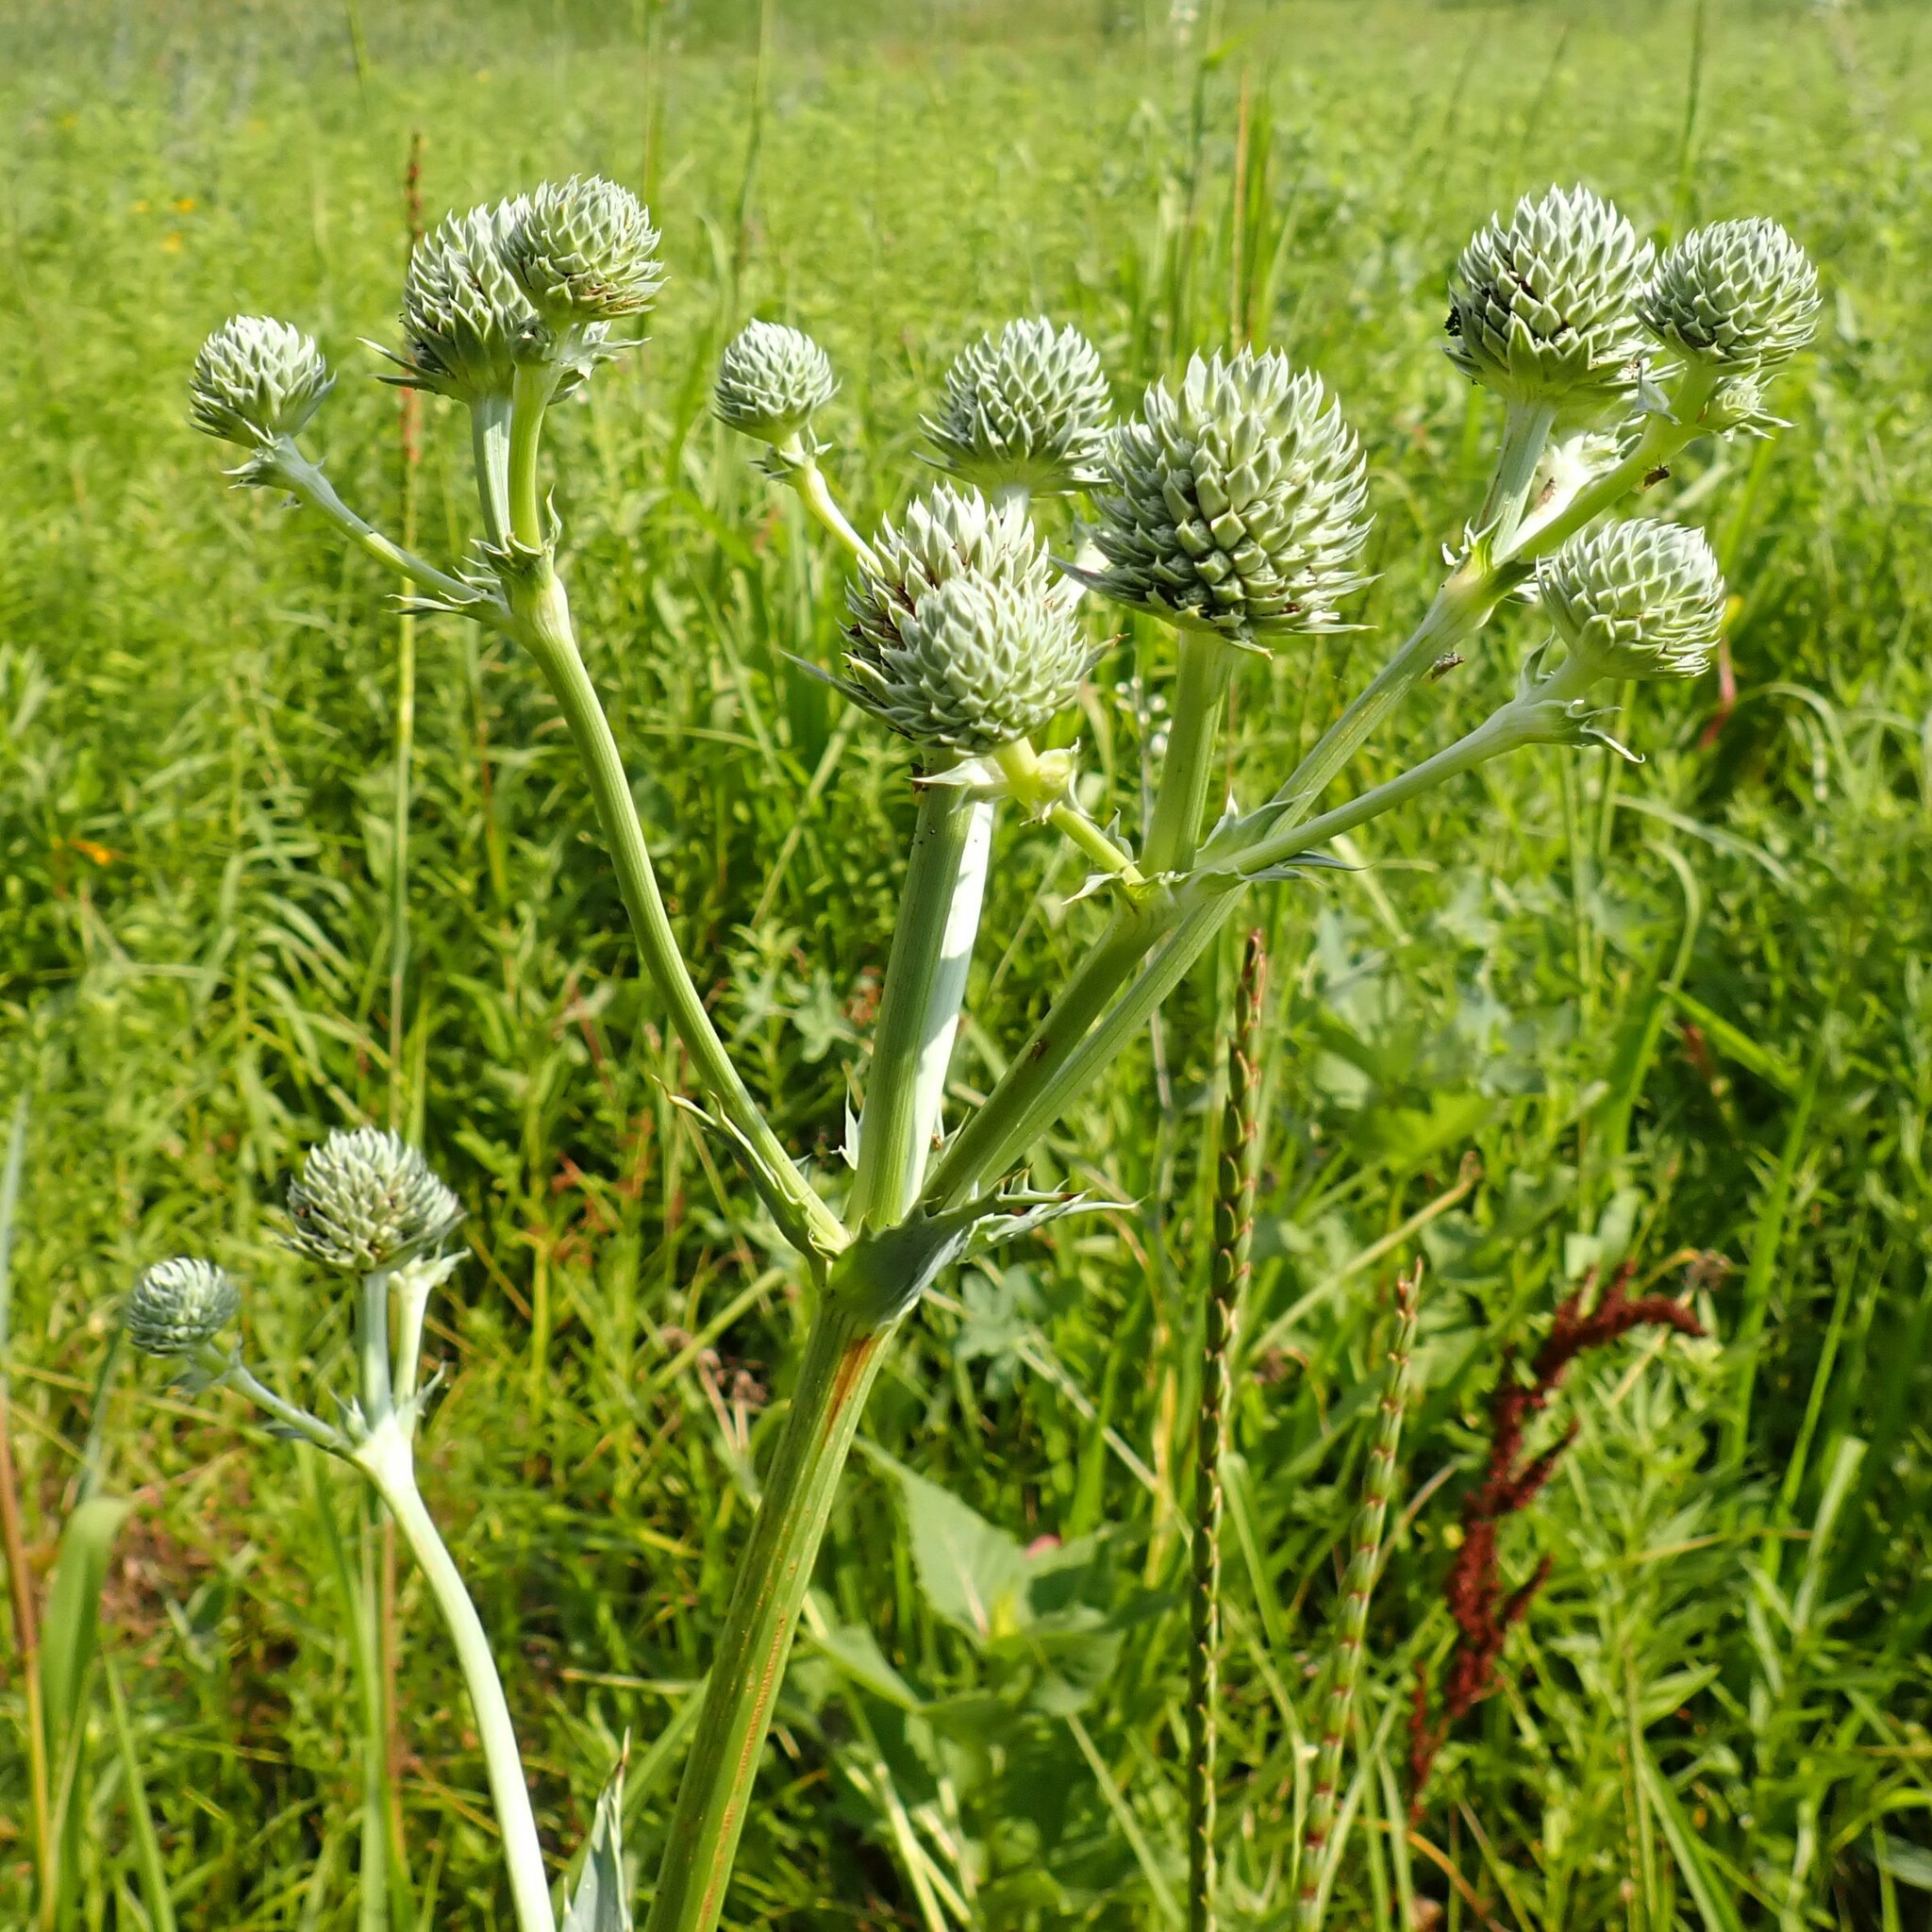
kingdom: Plantae
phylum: Tracheophyta
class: Magnoliopsida
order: Apiales
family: Apiaceae
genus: Eryngium
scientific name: Eryngium yuccifolium
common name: Button eryngo
